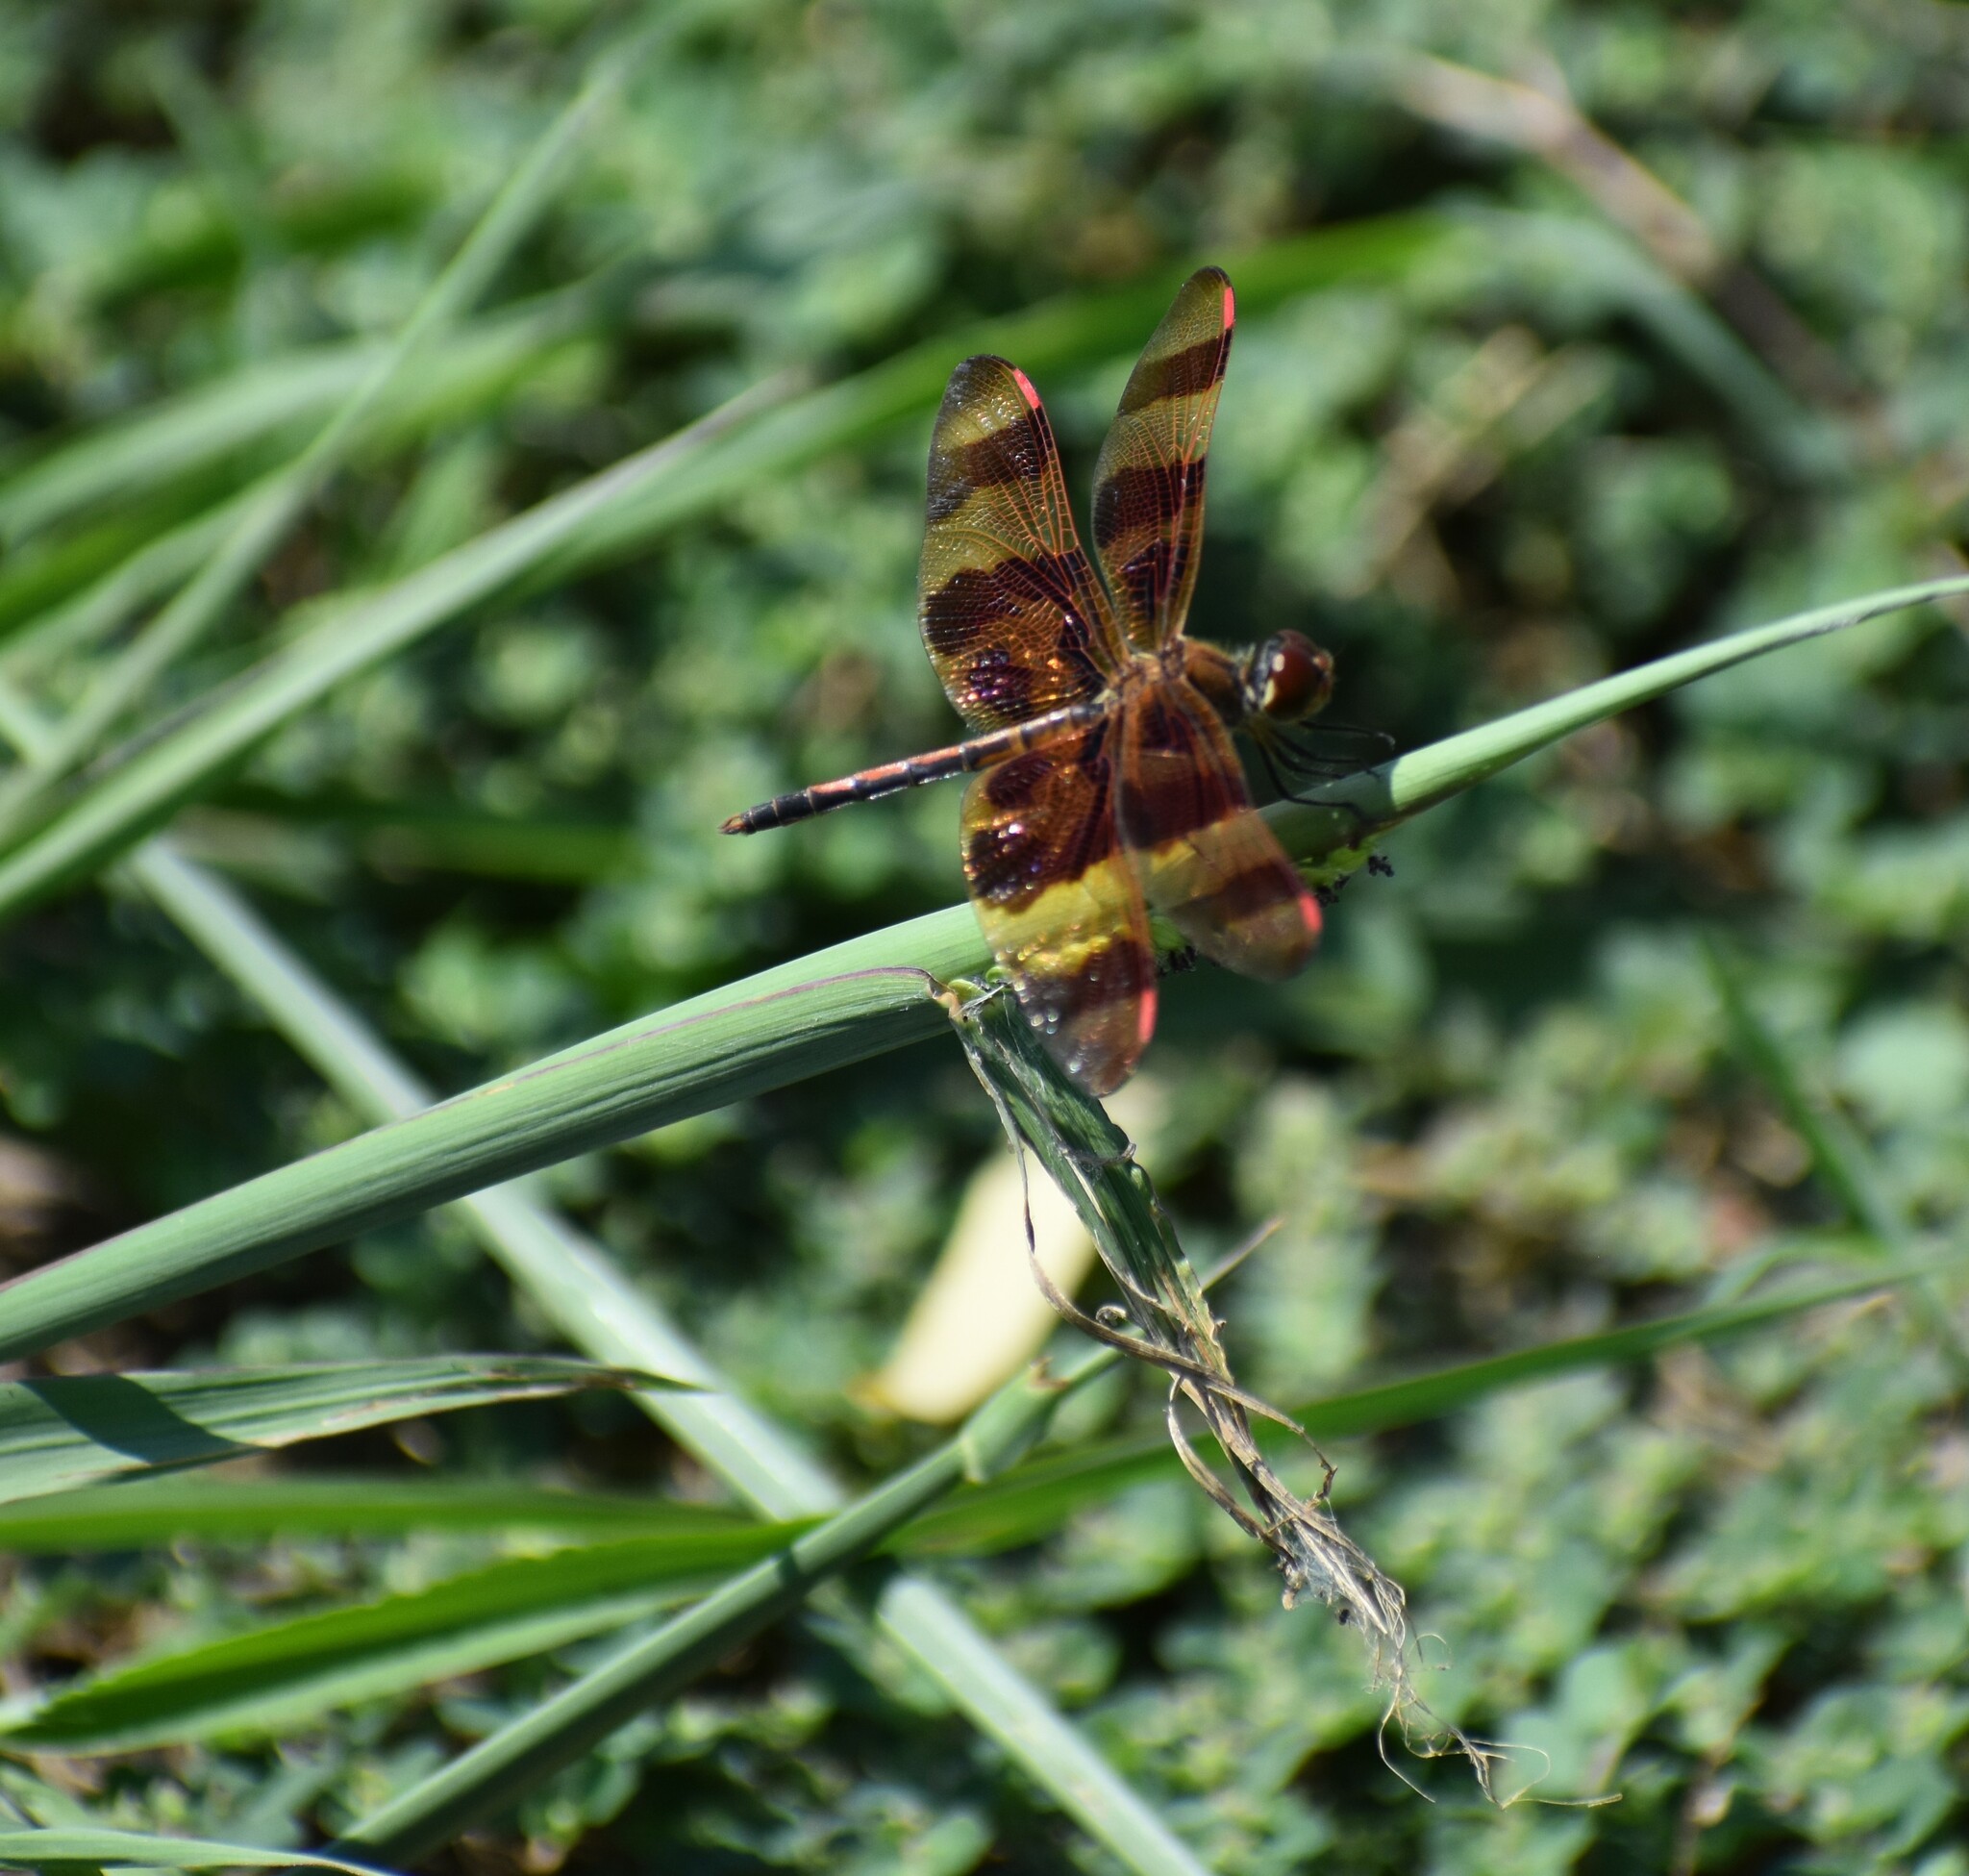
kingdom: Animalia
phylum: Arthropoda
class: Insecta
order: Odonata
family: Libellulidae
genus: Celithemis
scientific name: Celithemis eponina
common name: Halloween pennant
